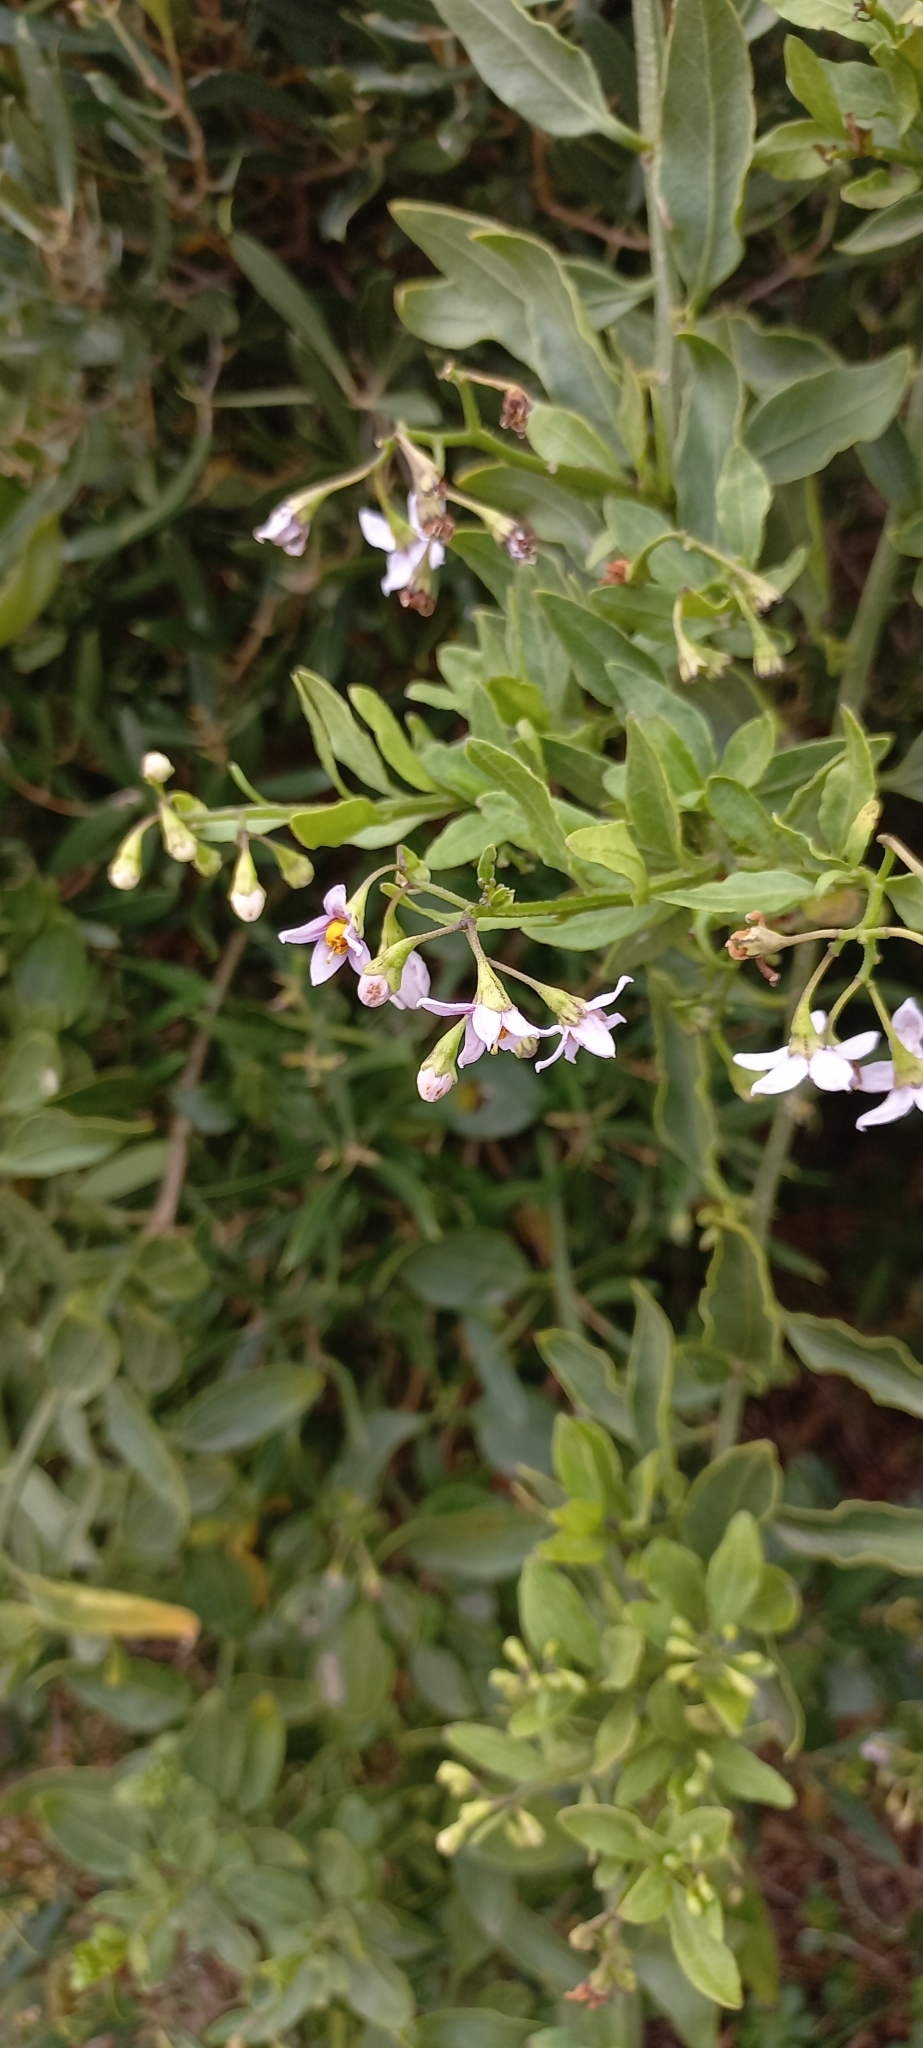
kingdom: Plantae
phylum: Tracheophyta
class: Magnoliopsida
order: Solanales
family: Solanaceae
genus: Solanum
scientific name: Solanum africanum
